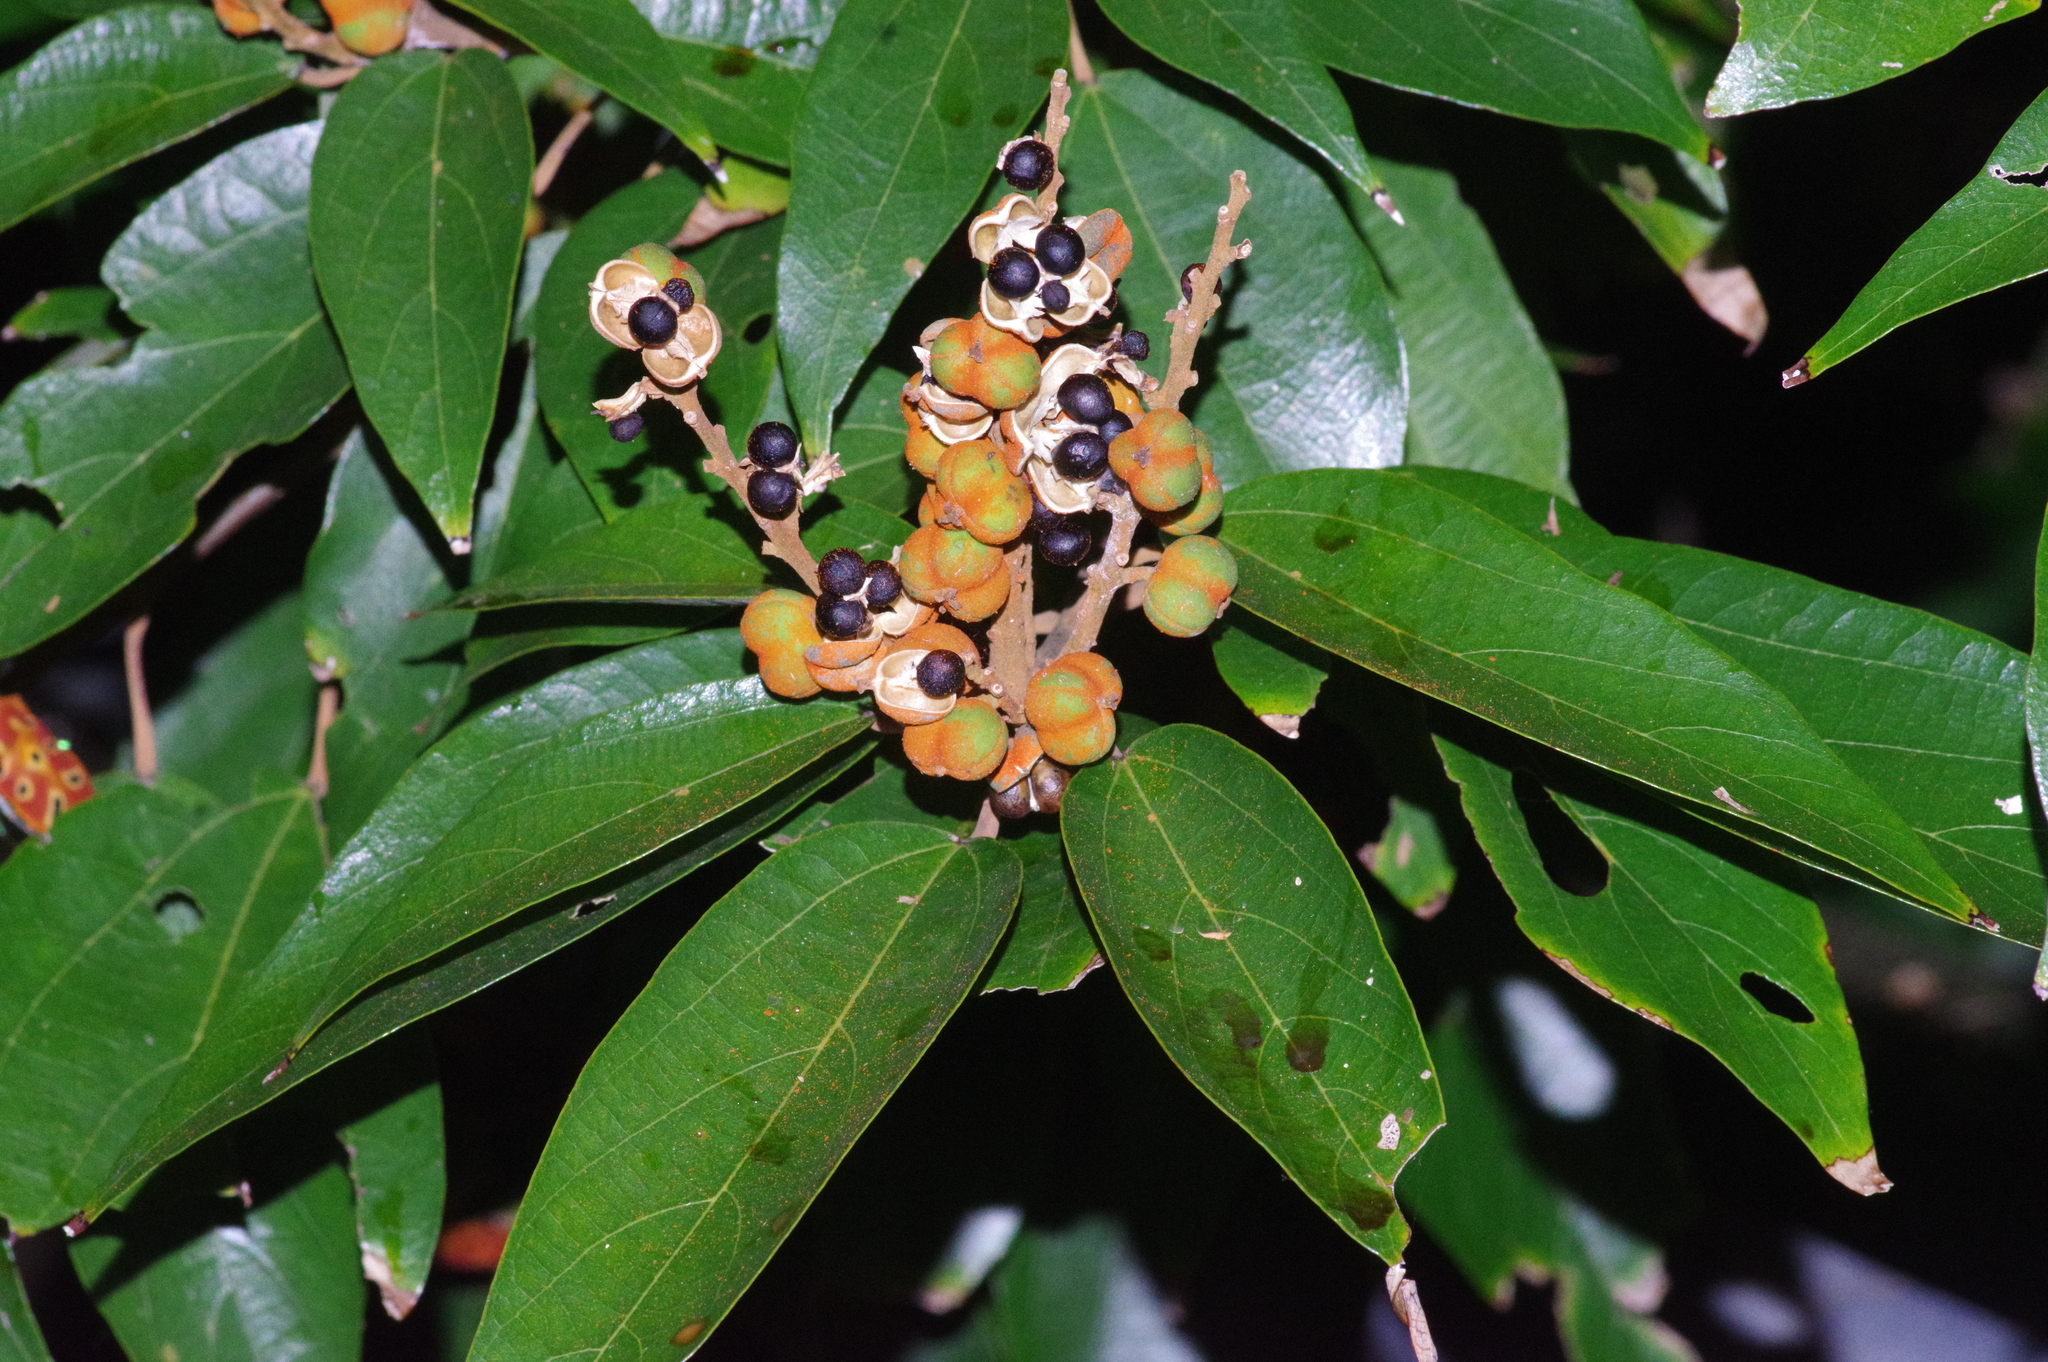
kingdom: Plantae
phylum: Tracheophyta
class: Magnoliopsida
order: Malpighiales
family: Euphorbiaceae
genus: Mallotus
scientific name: Mallotus philippensis
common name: Kamala tree
